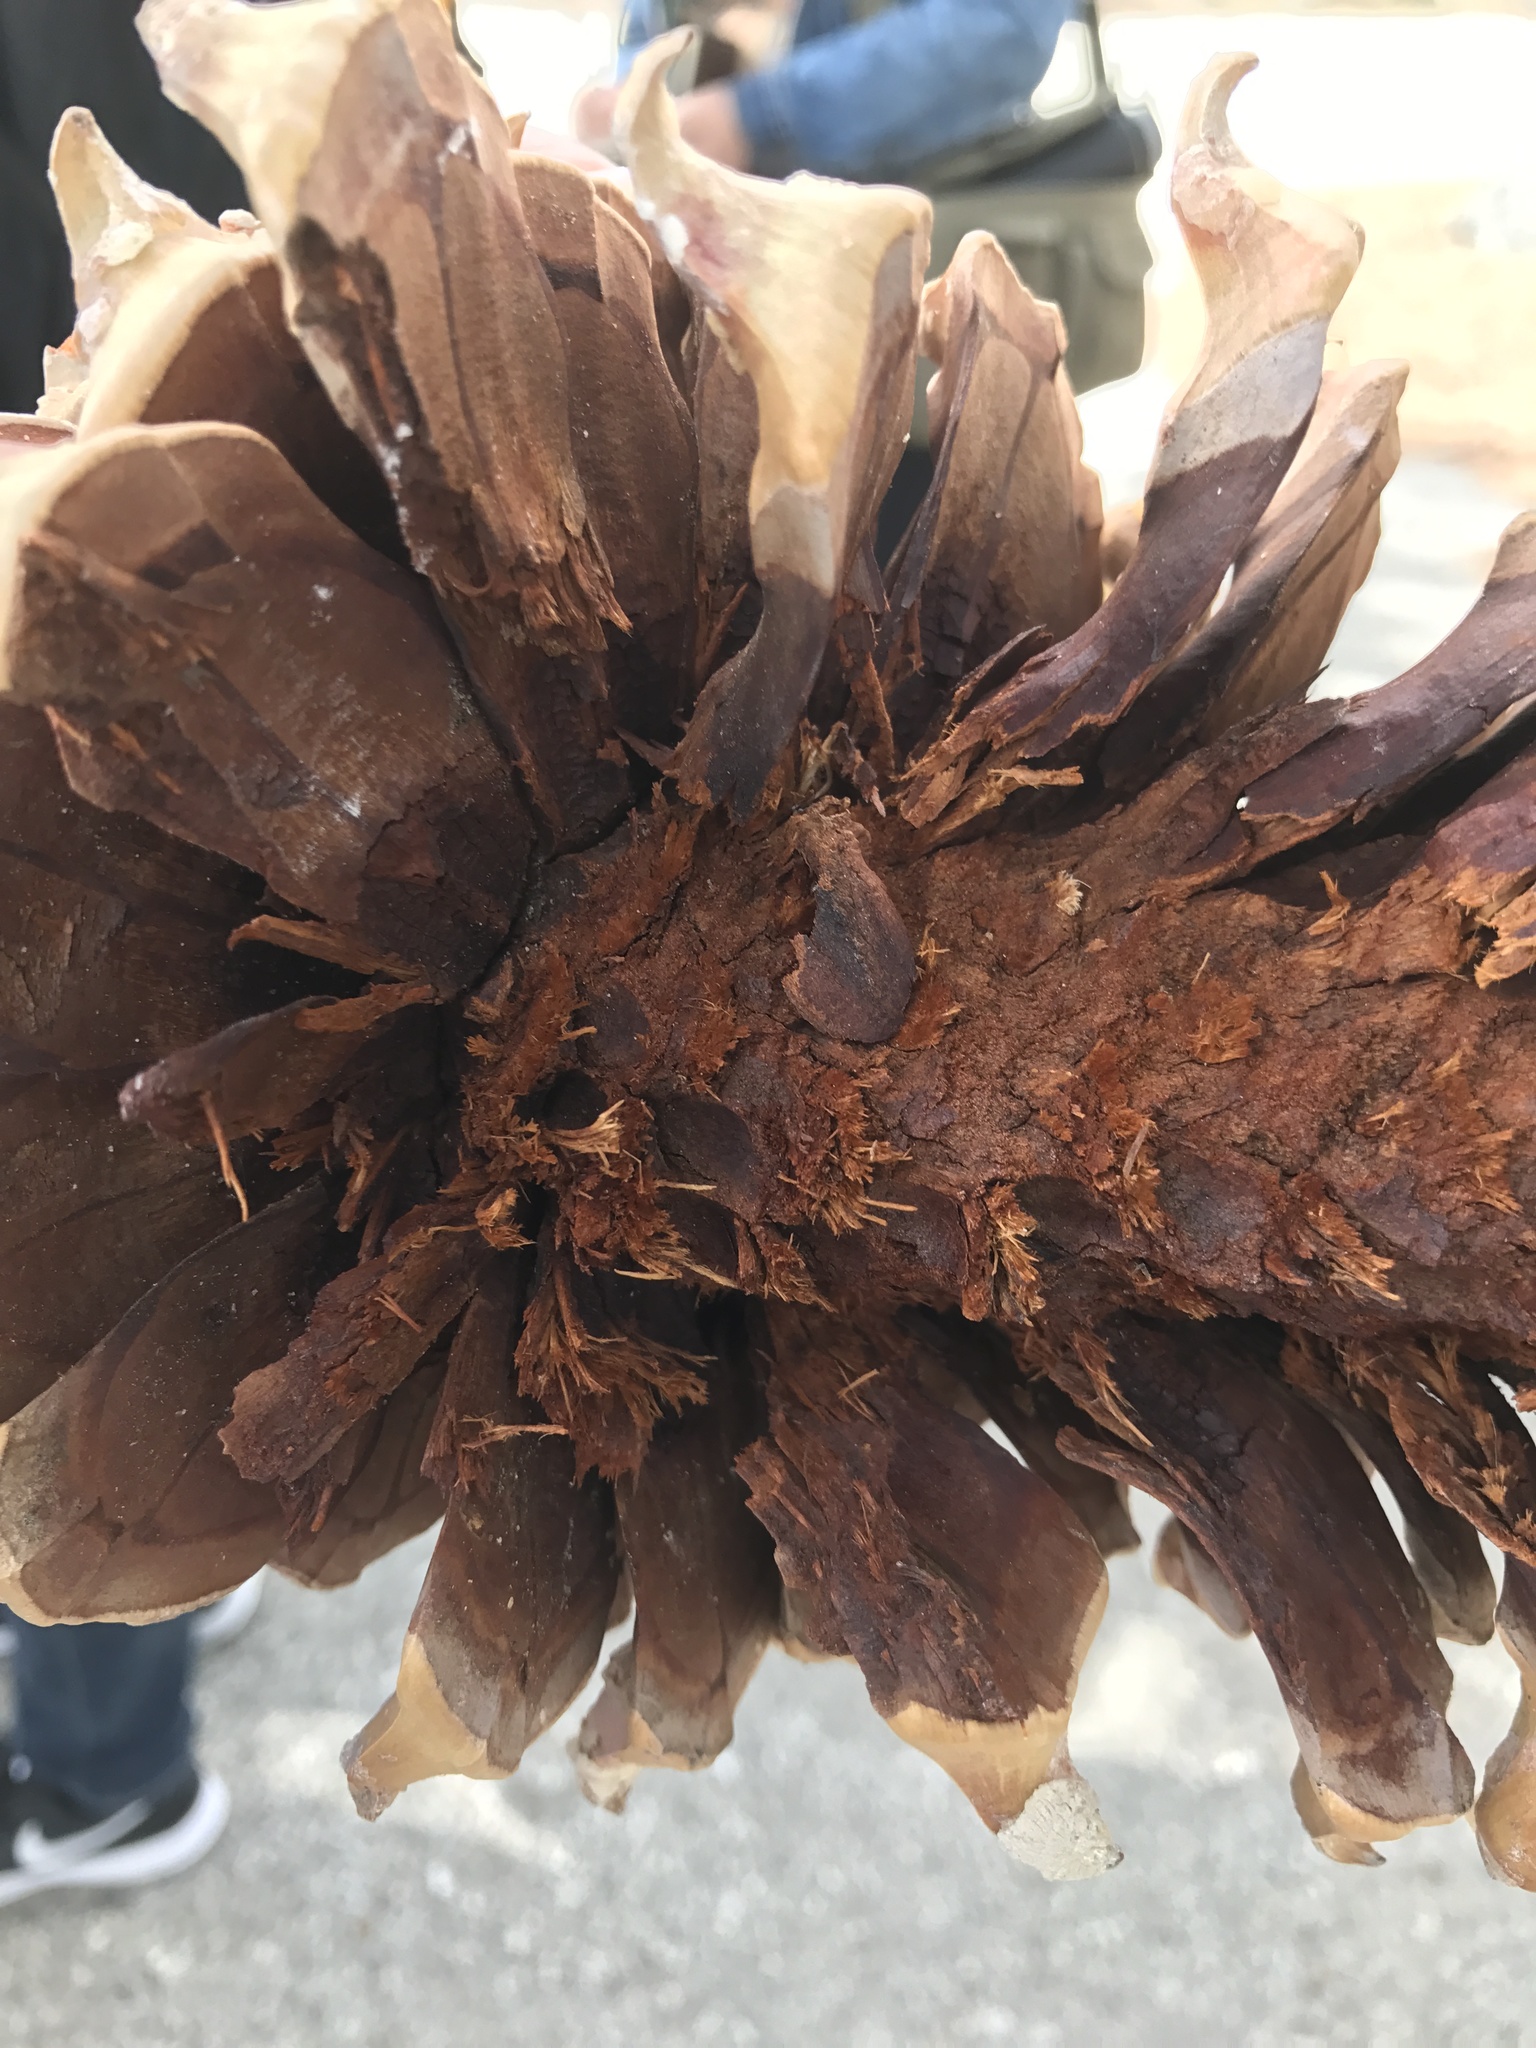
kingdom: Plantae
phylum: Tracheophyta
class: Pinopsida
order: Pinales
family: Pinaceae
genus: Pinus
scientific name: Pinus coulteri
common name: Coulter pine
